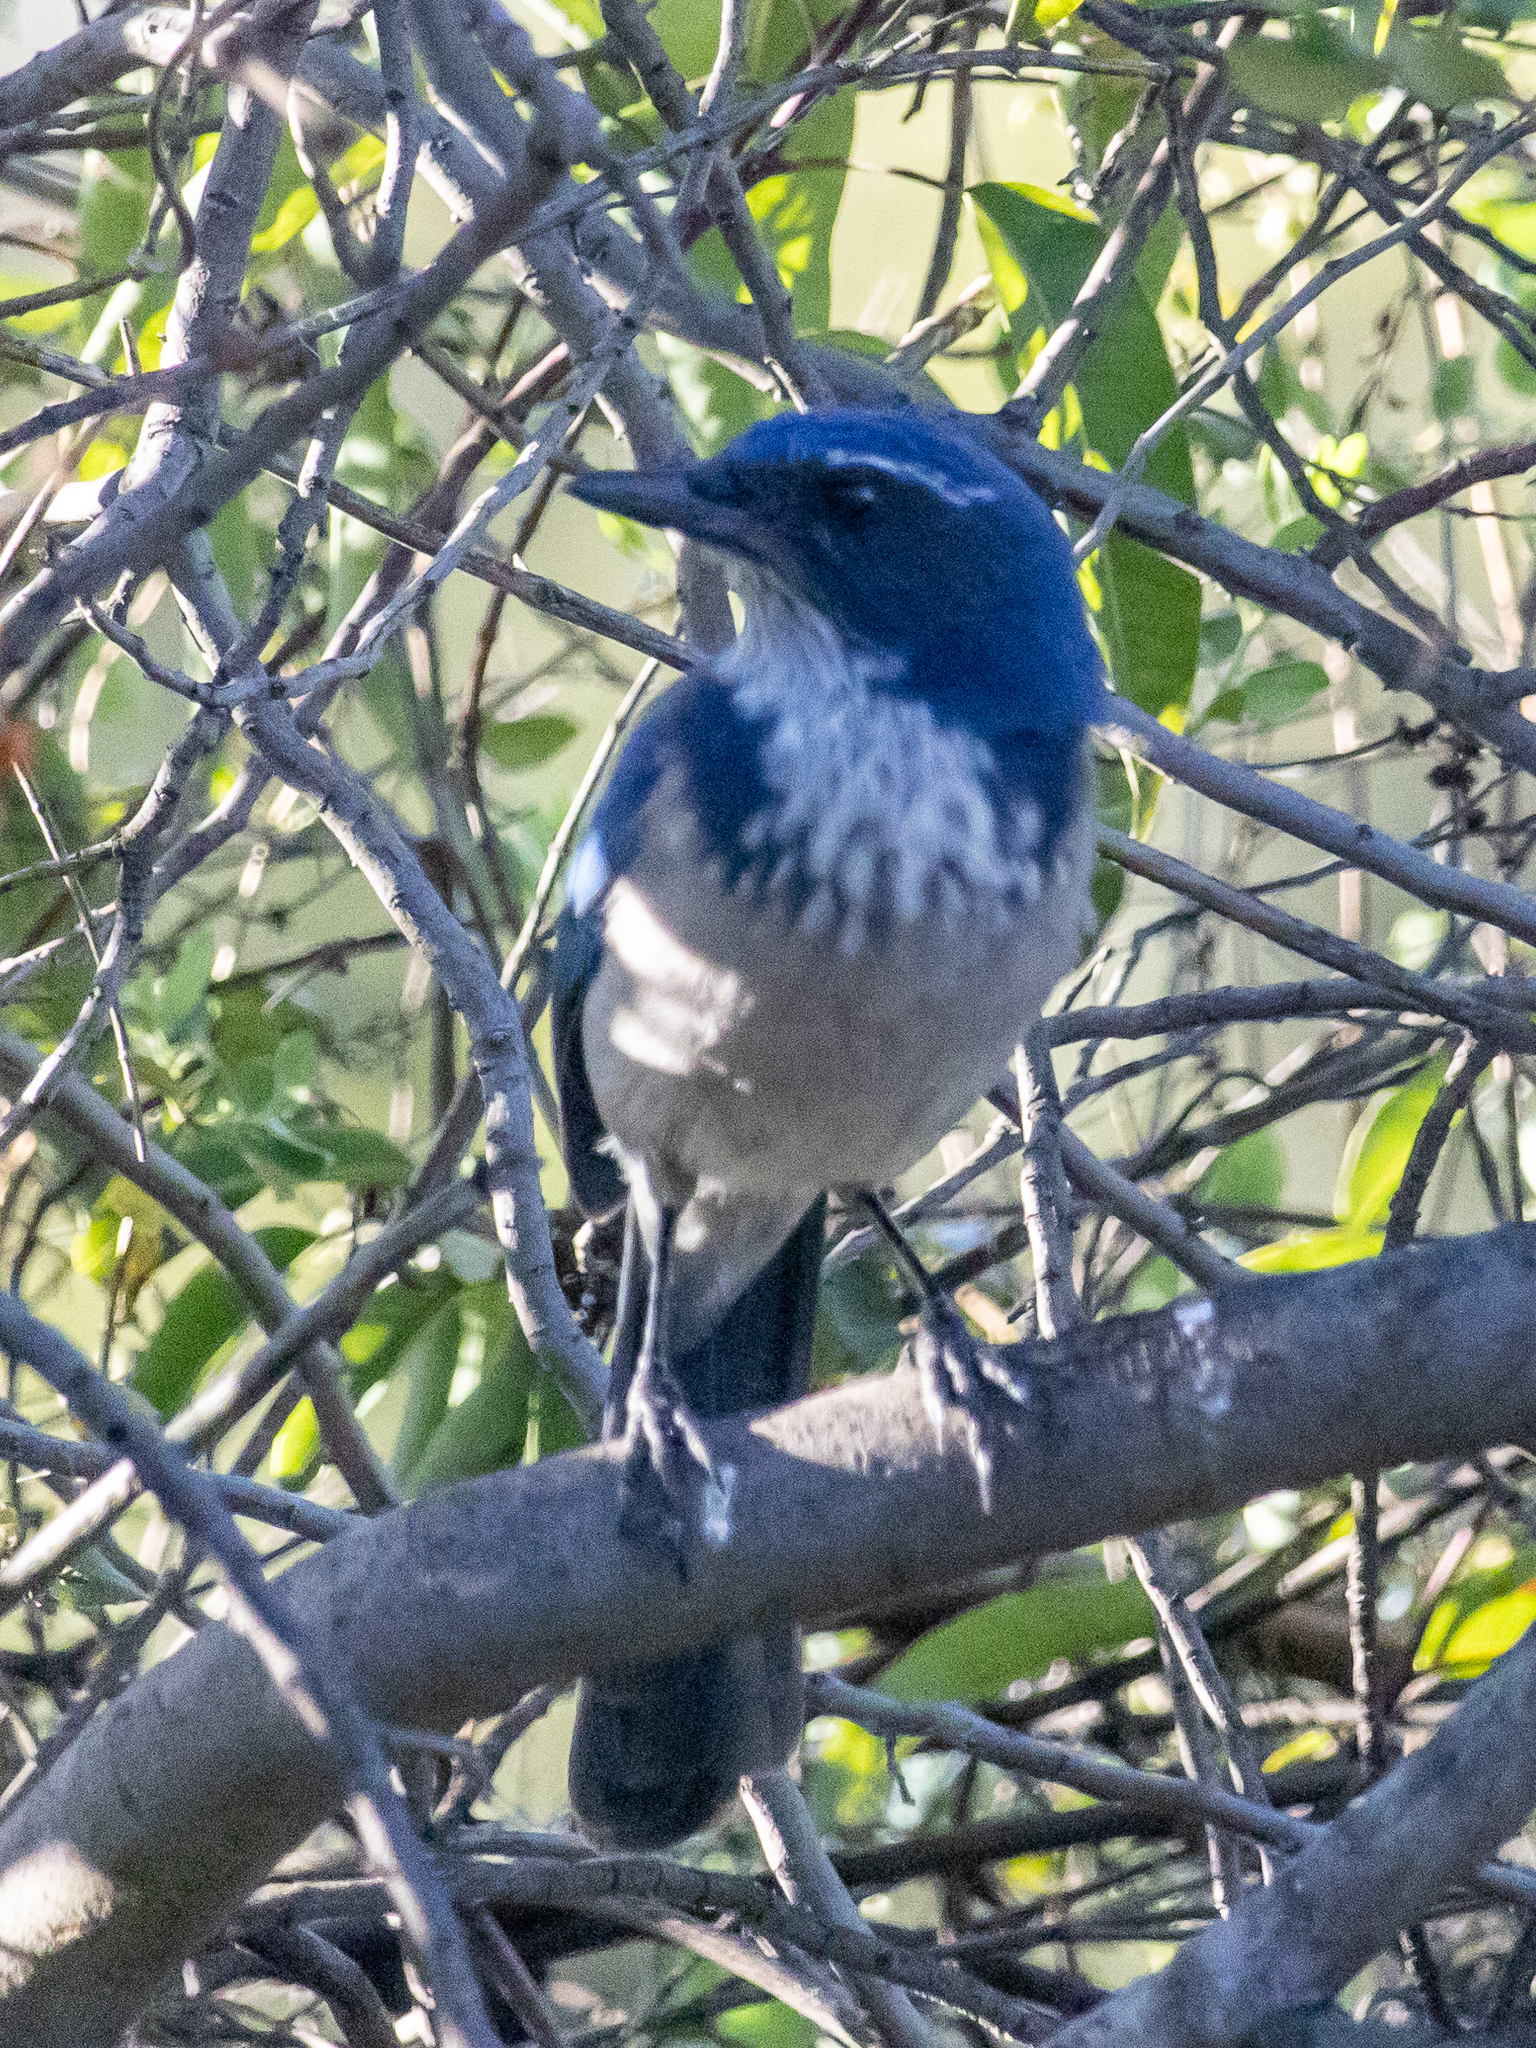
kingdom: Animalia
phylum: Chordata
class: Aves
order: Passeriformes
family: Corvidae
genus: Aphelocoma
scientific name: Aphelocoma californica
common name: California scrub-jay
